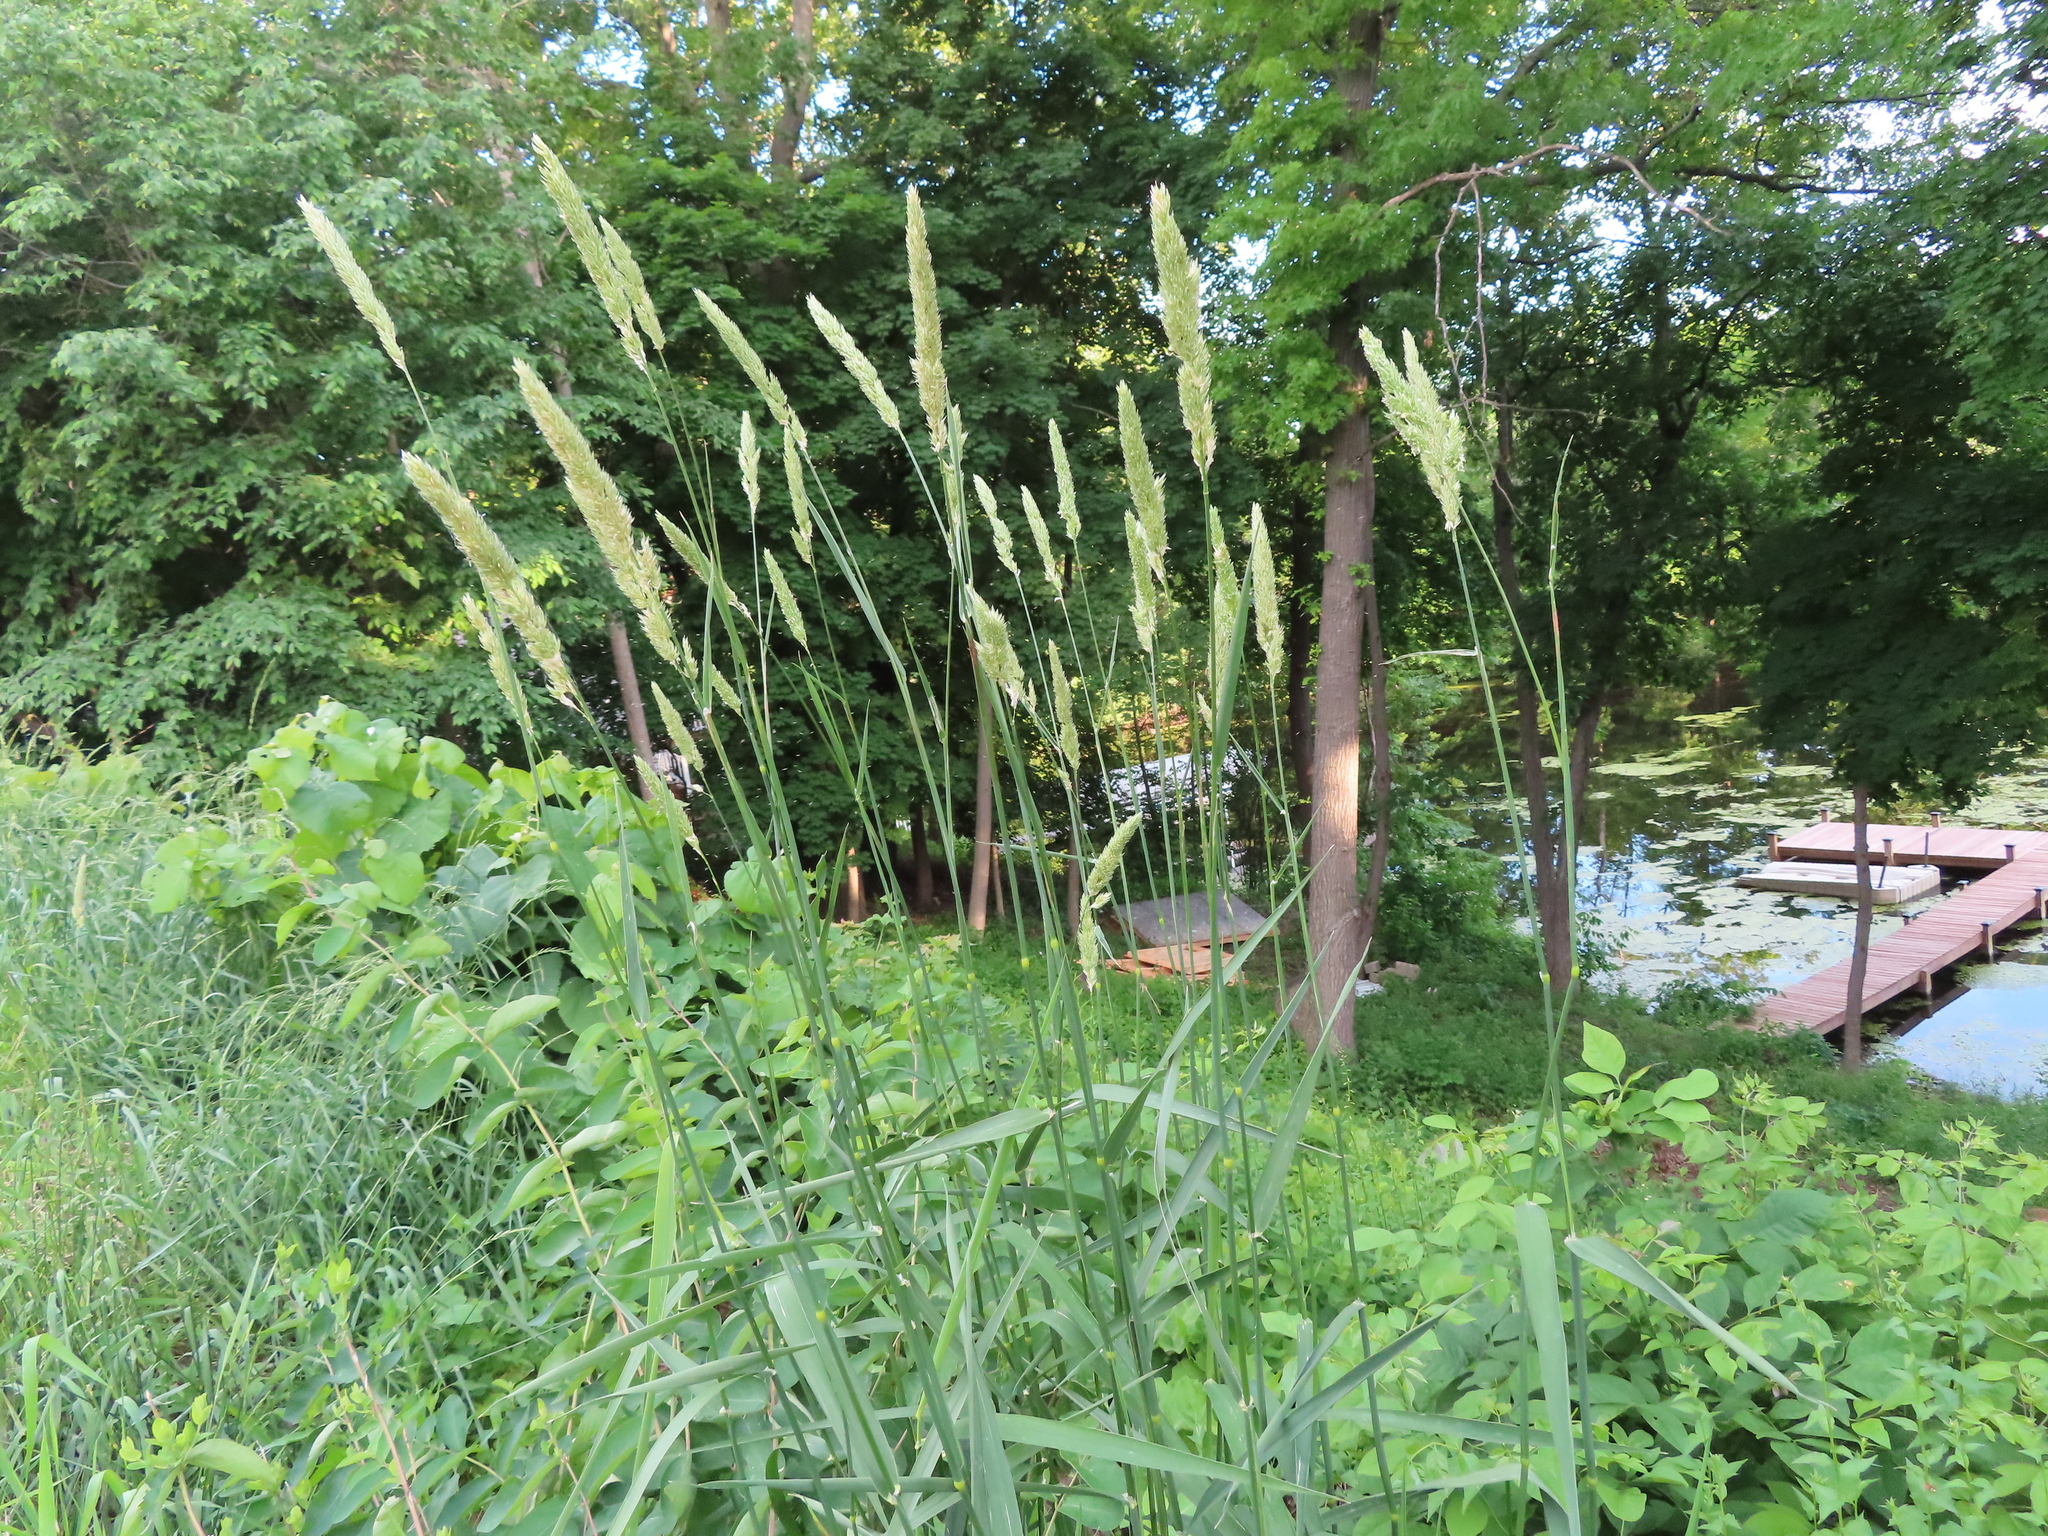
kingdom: Plantae
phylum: Tracheophyta
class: Liliopsida
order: Poales
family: Poaceae
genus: Phalaris
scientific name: Phalaris arundinacea
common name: Reed canary-grass
